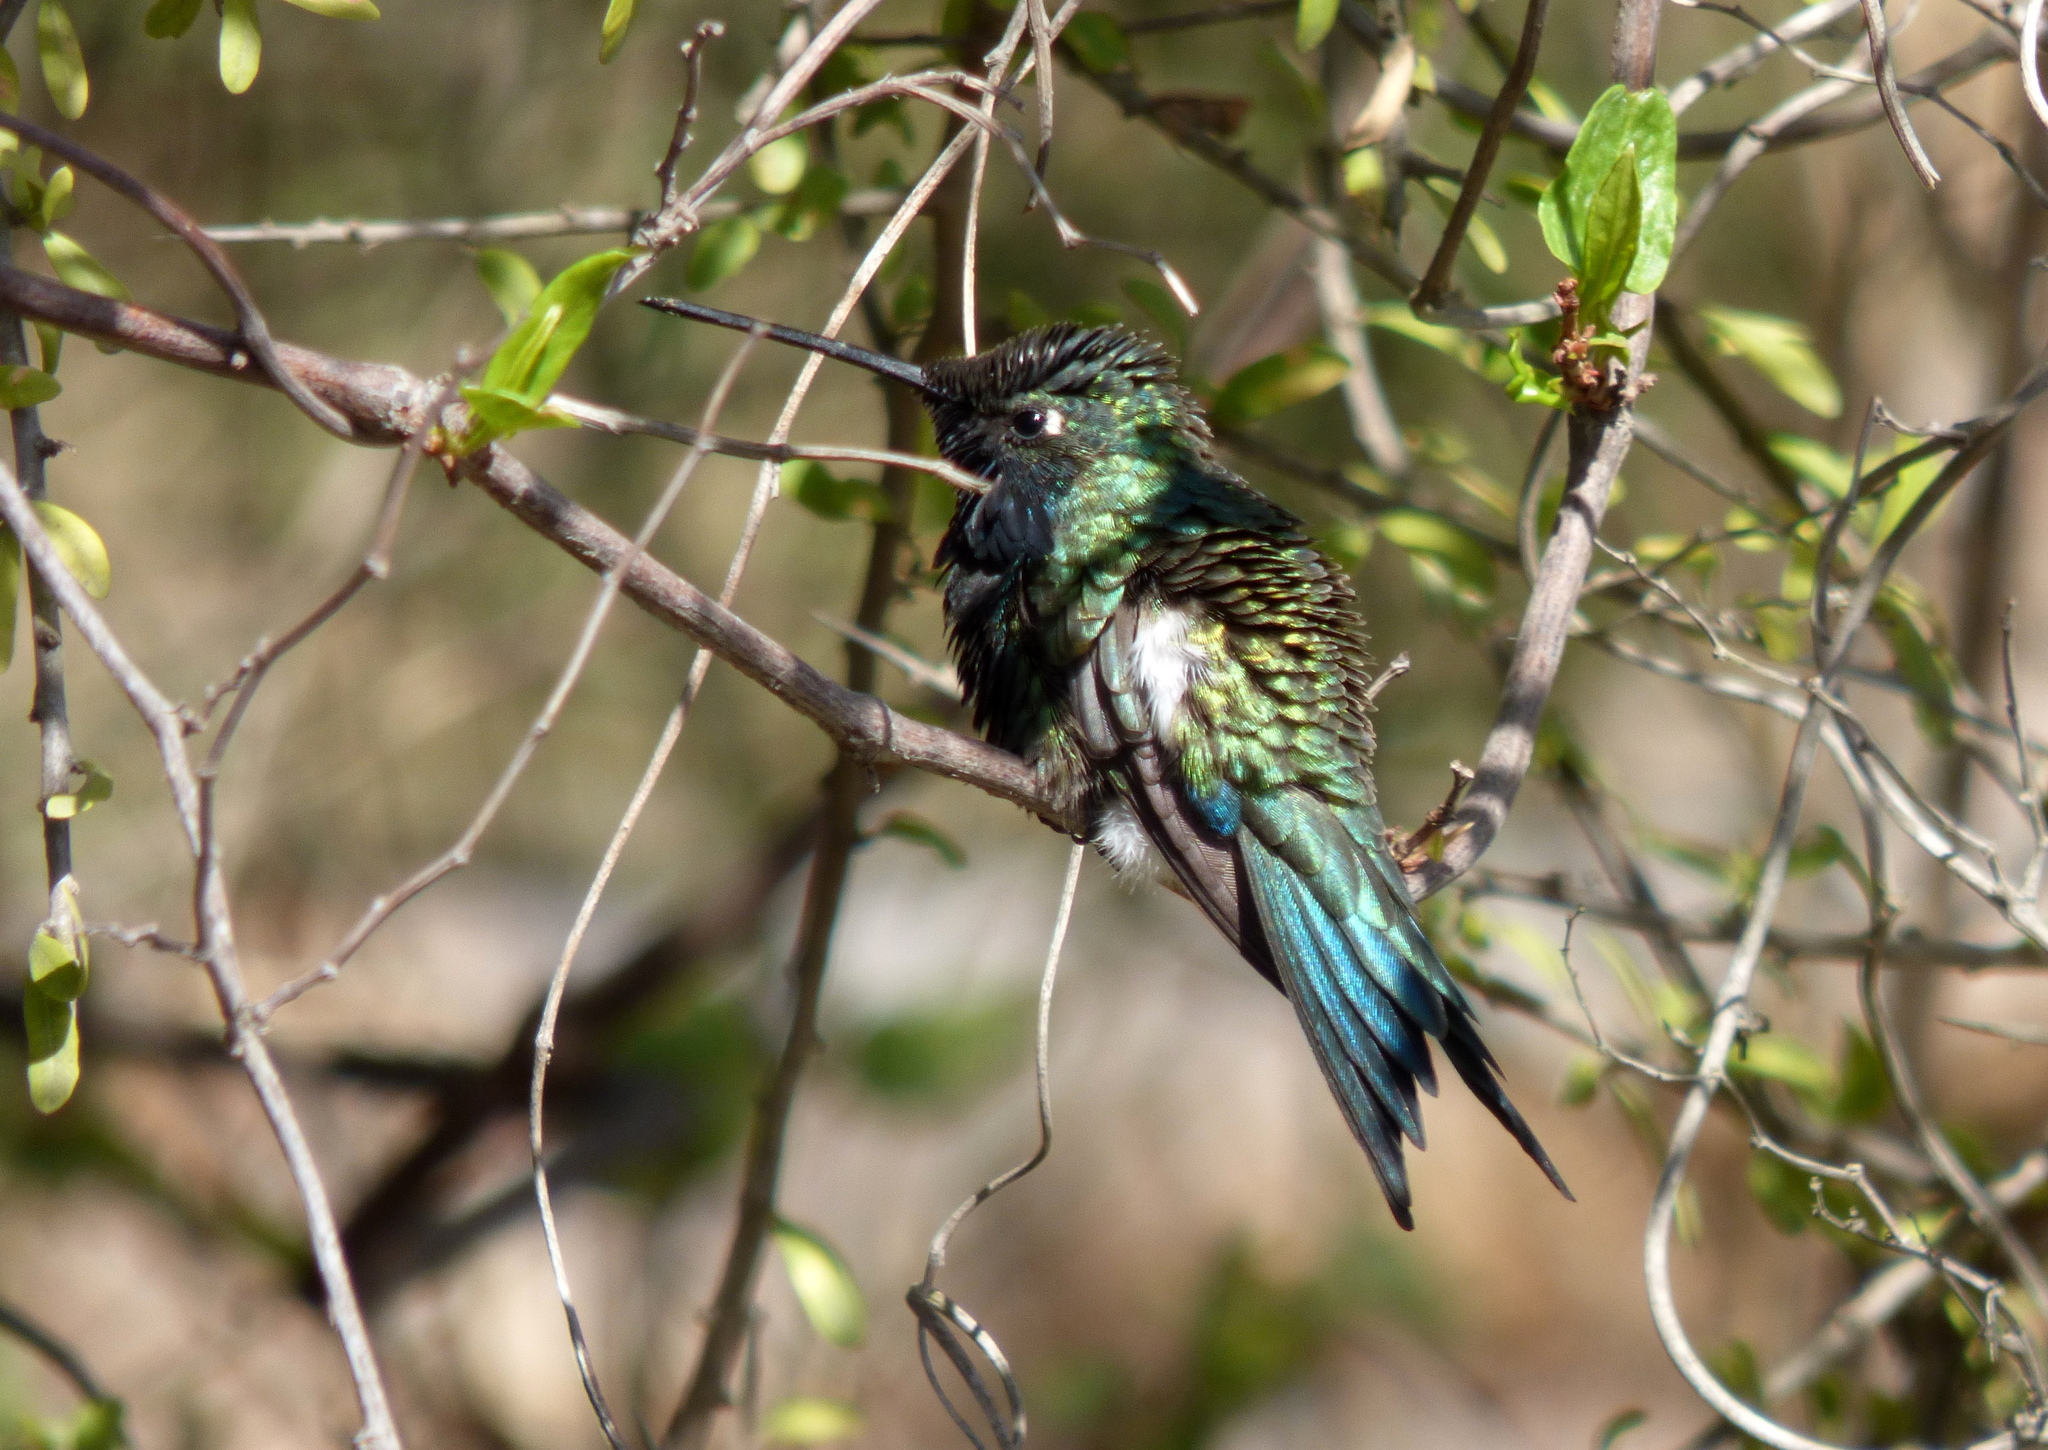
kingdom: Animalia
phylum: Chordata
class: Aves
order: Apodiformes
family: Trochilidae
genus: Heliomaster
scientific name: Heliomaster furcifer
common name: Blue-tufted starthroat
